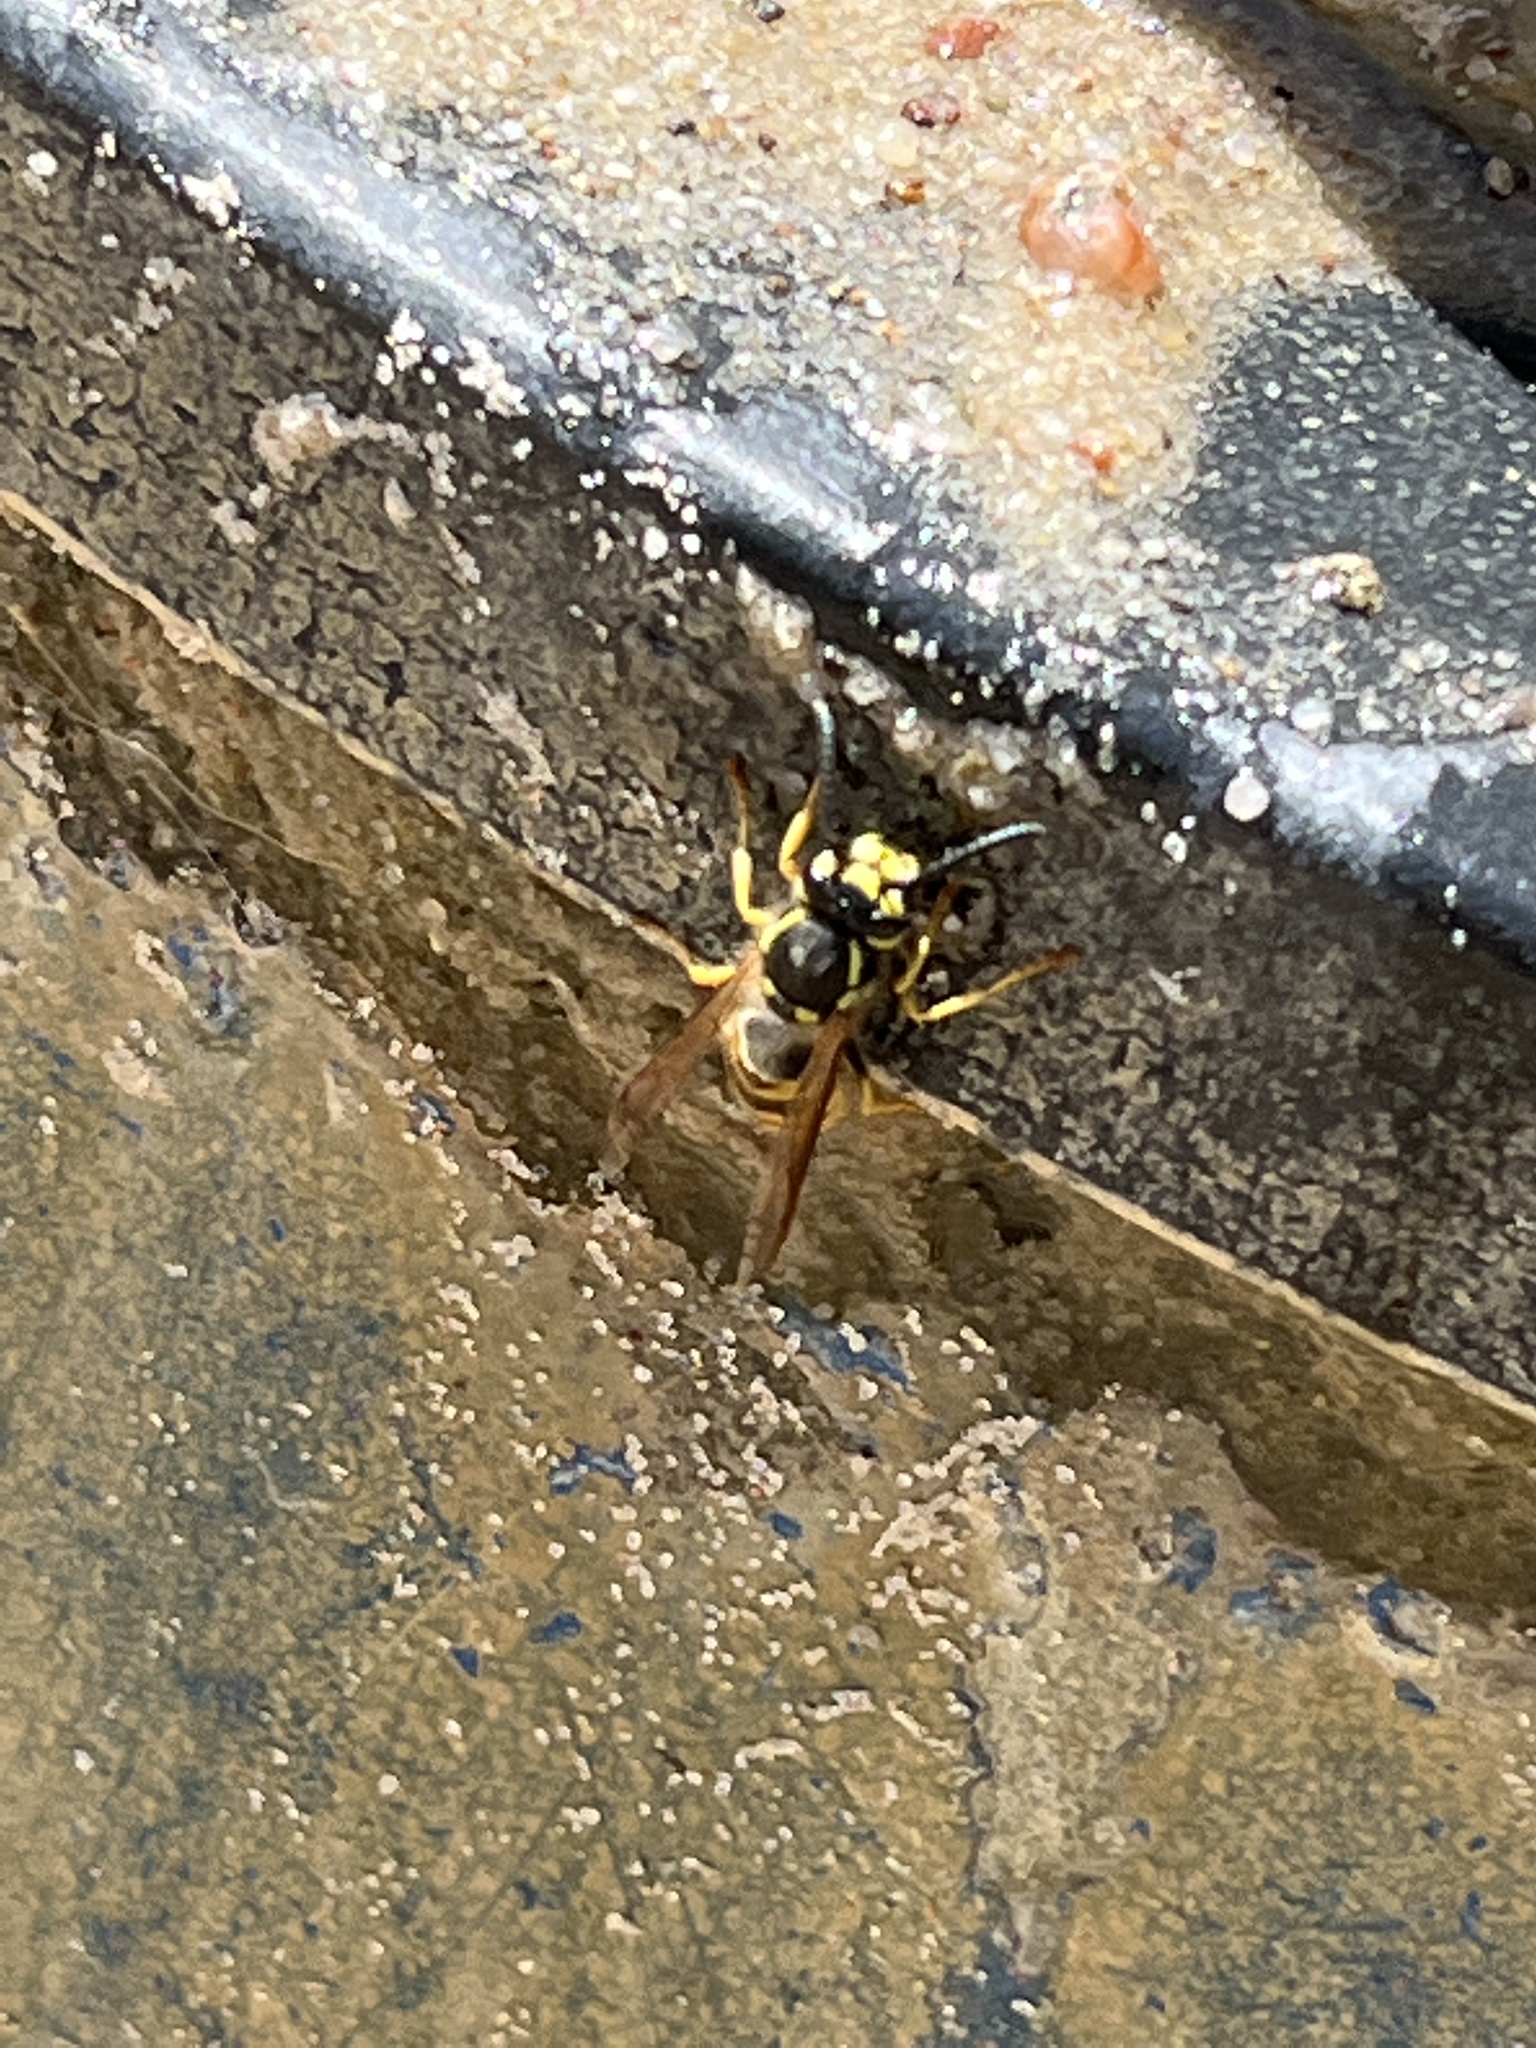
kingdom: Animalia
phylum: Arthropoda
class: Insecta
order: Hymenoptera
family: Vespidae
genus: Vespula
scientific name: Vespula germanica
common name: German wasp
